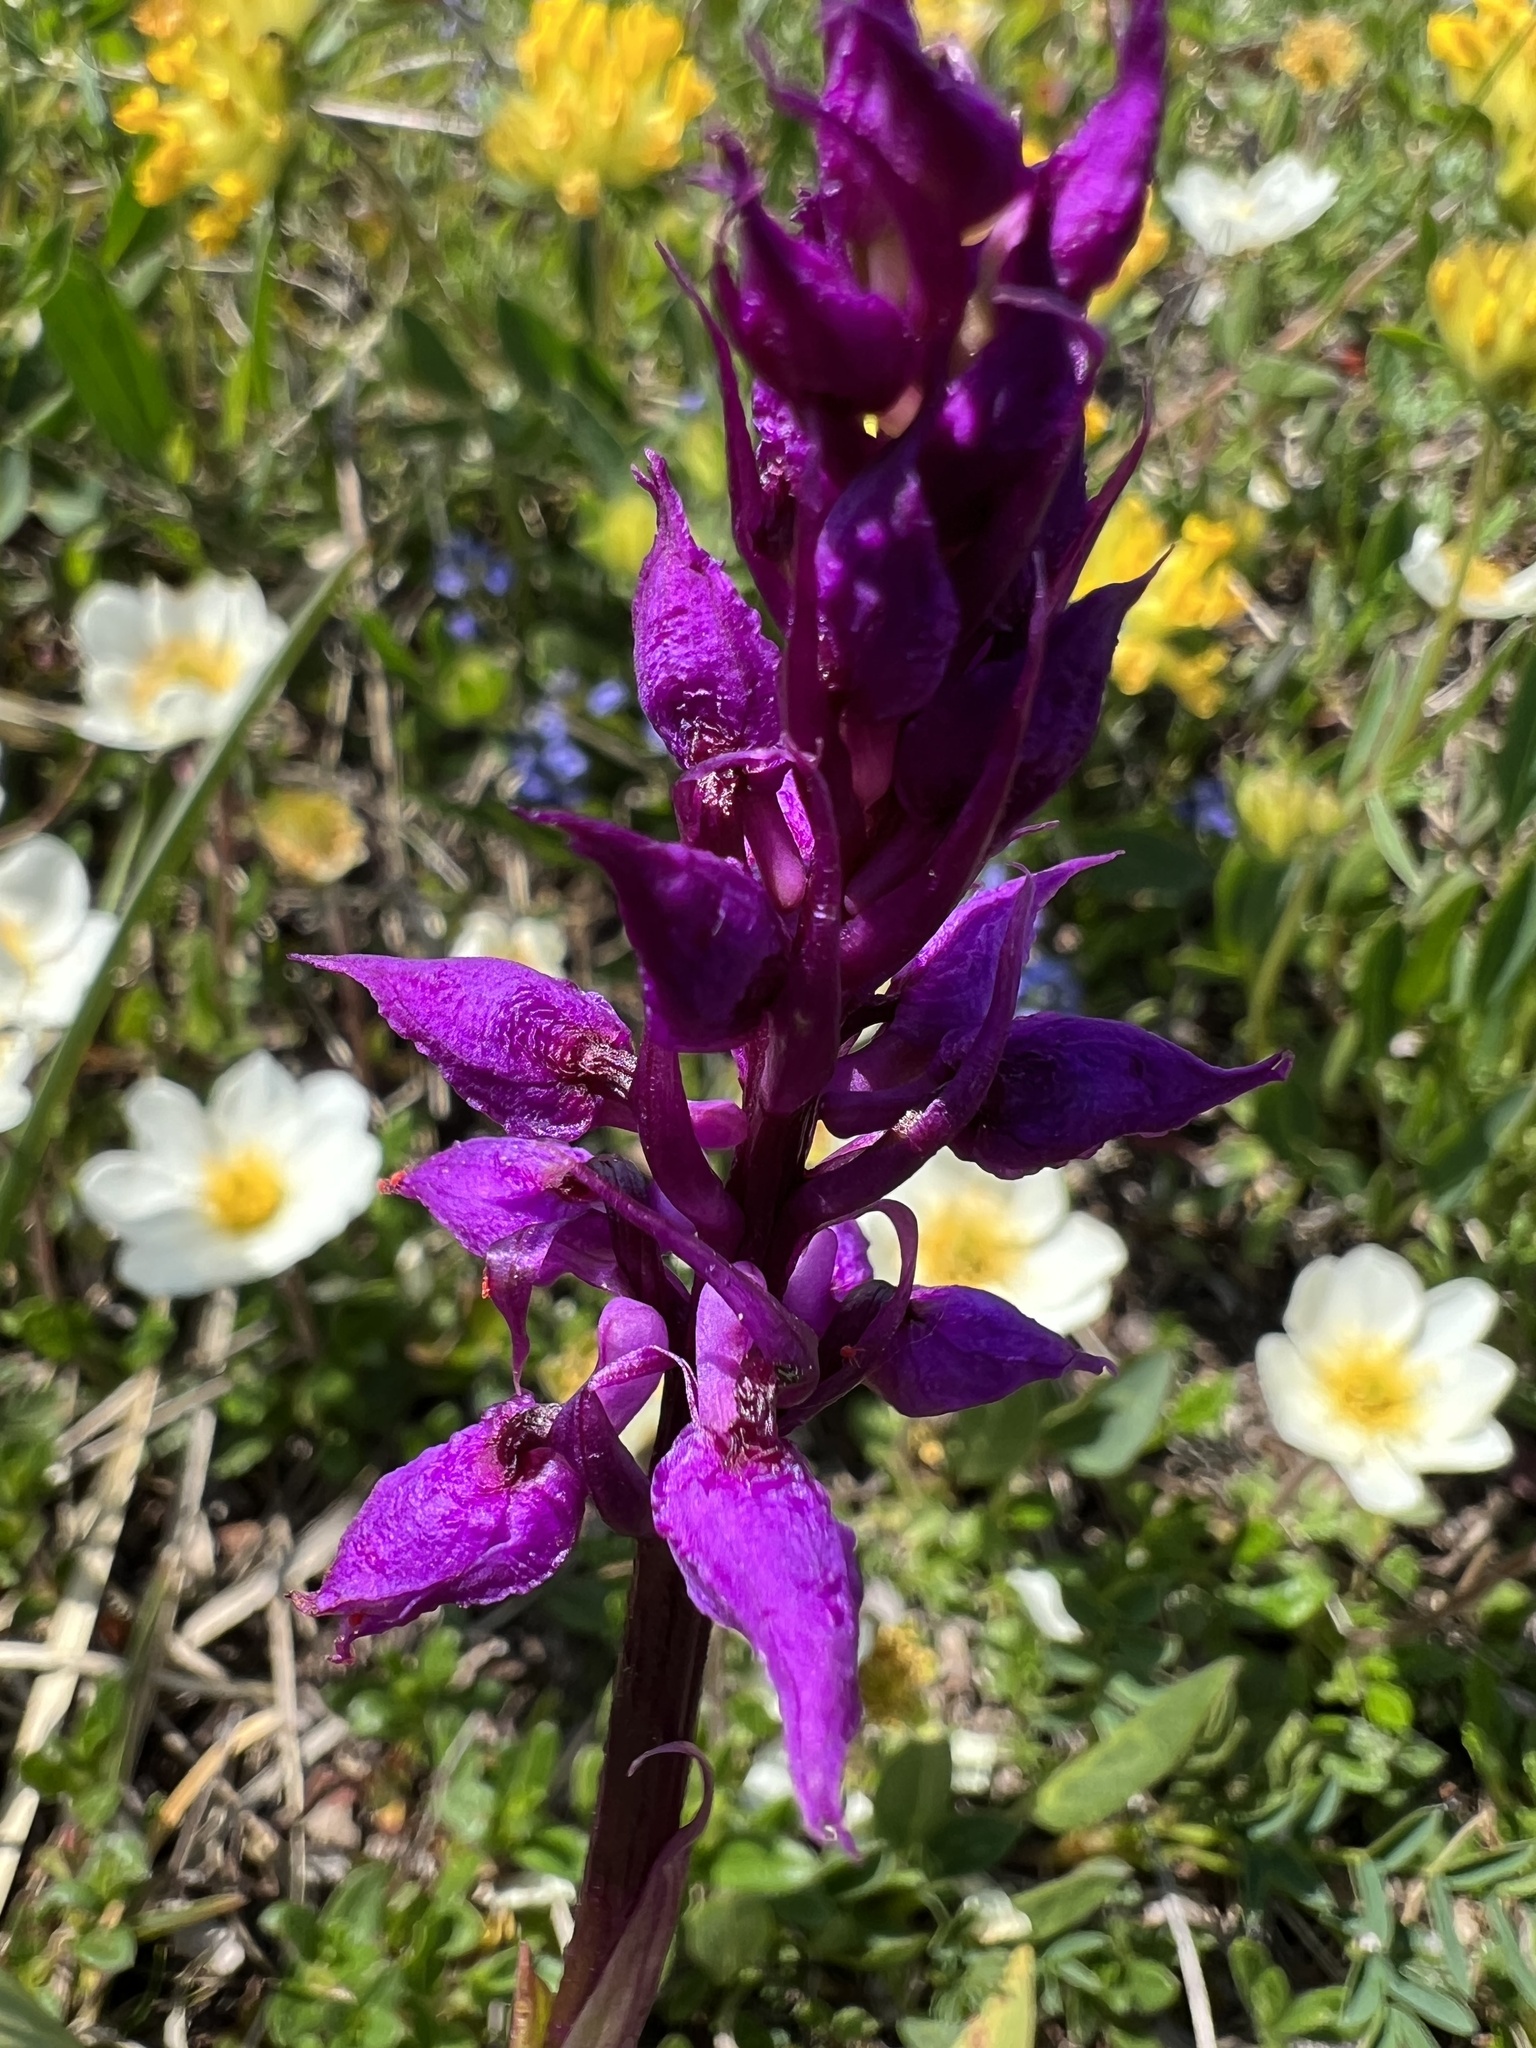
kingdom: Plantae
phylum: Tracheophyta
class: Liliopsida
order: Asparagales
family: Orchidaceae
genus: Orchis
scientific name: Orchis mascula
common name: Early-purple orchid
